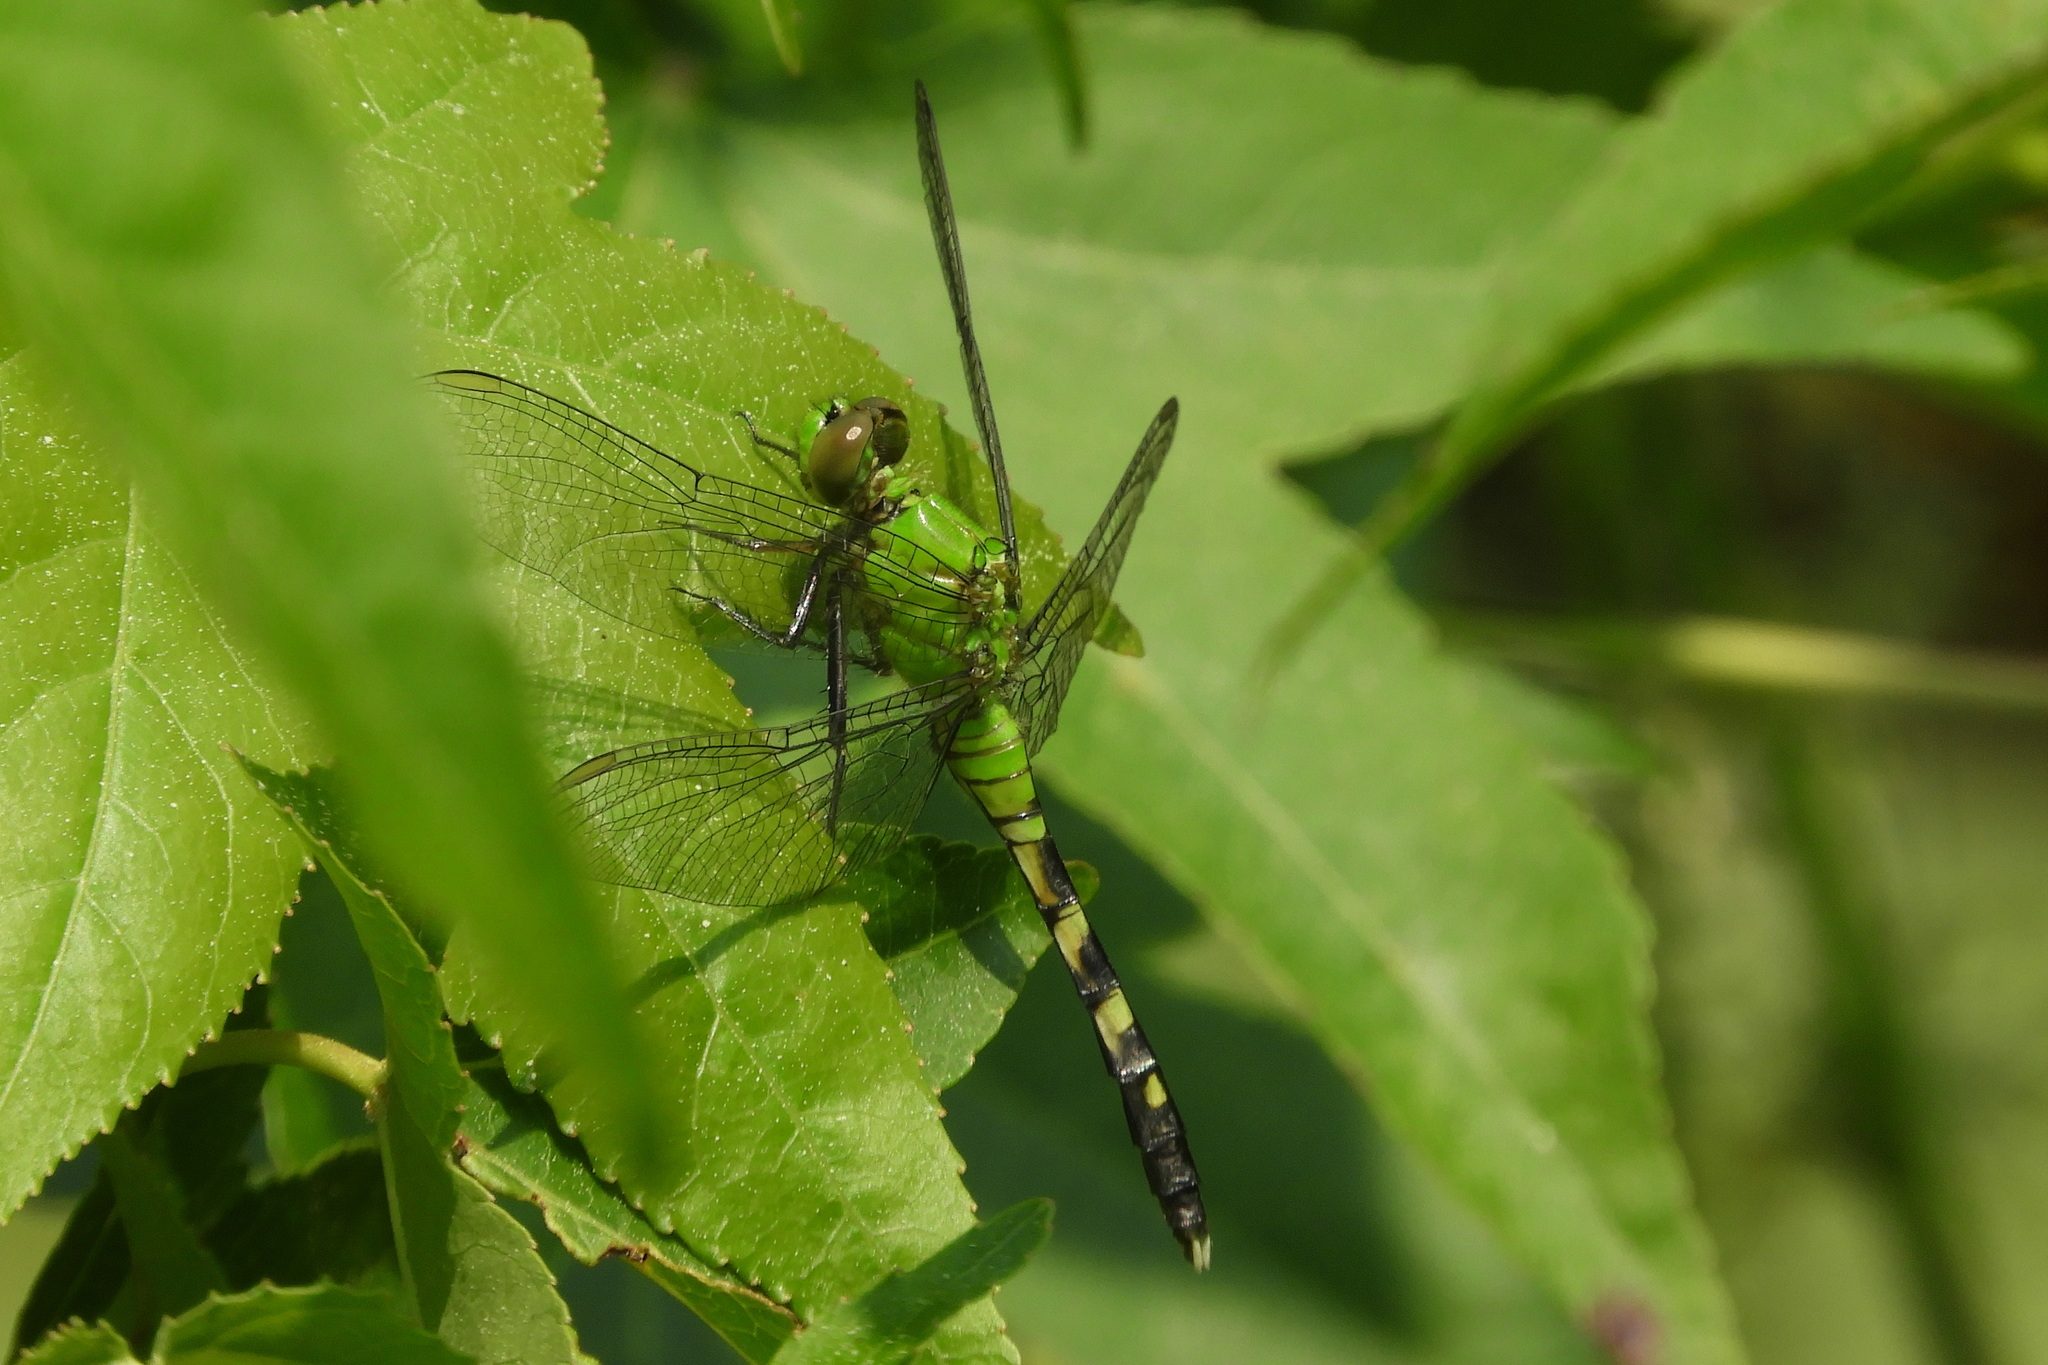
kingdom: Animalia
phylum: Arthropoda
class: Insecta
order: Odonata
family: Libellulidae
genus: Erythemis
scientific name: Erythemis simplicicollis
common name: Eastern pondhawk
